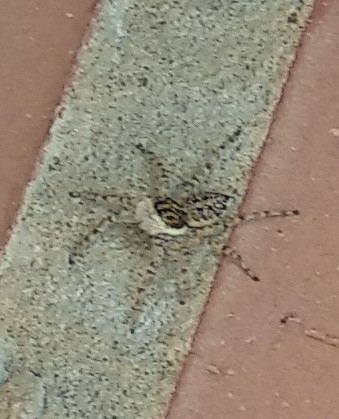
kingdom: Animalia
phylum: Arthropoda
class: Arachnida
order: Araneae
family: Salticidae
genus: Menemerus
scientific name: Menemerus semilimbatus
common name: Jumping spider
